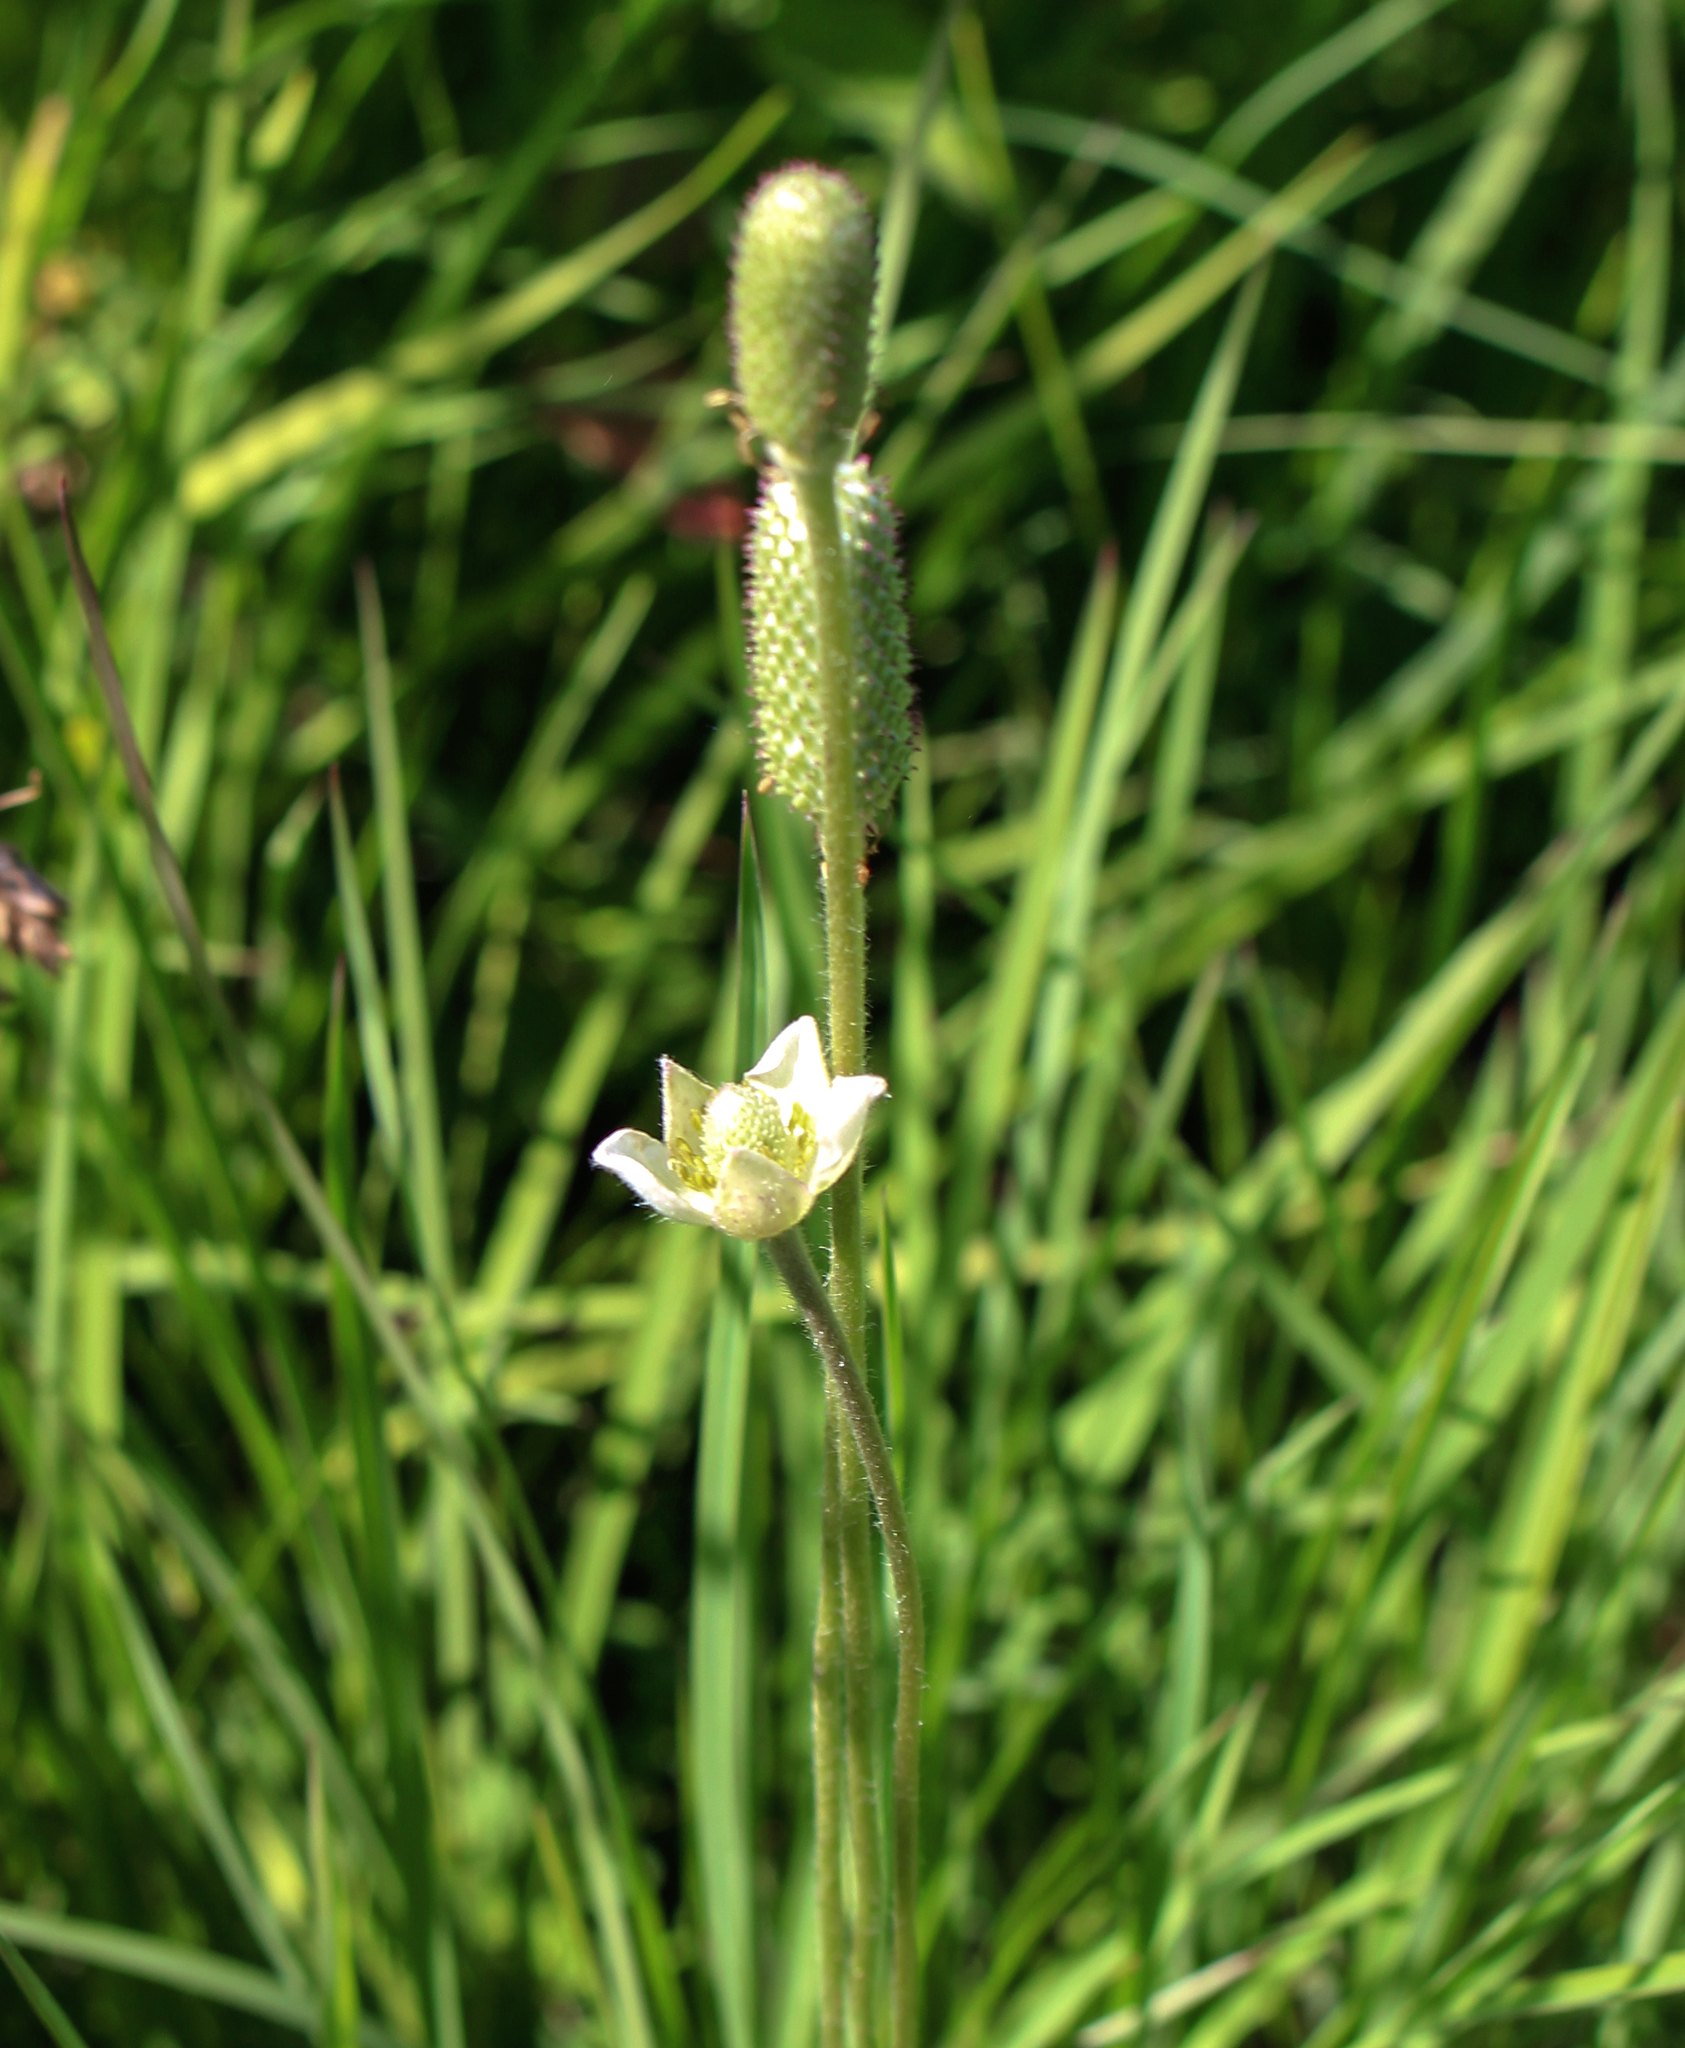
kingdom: Plantae
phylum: Tracheophyta
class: Magnoliopsida
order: Ranunculales
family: Ranunculaceae
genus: Anemone
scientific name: Anemone cylindrica
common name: Candle anemone
